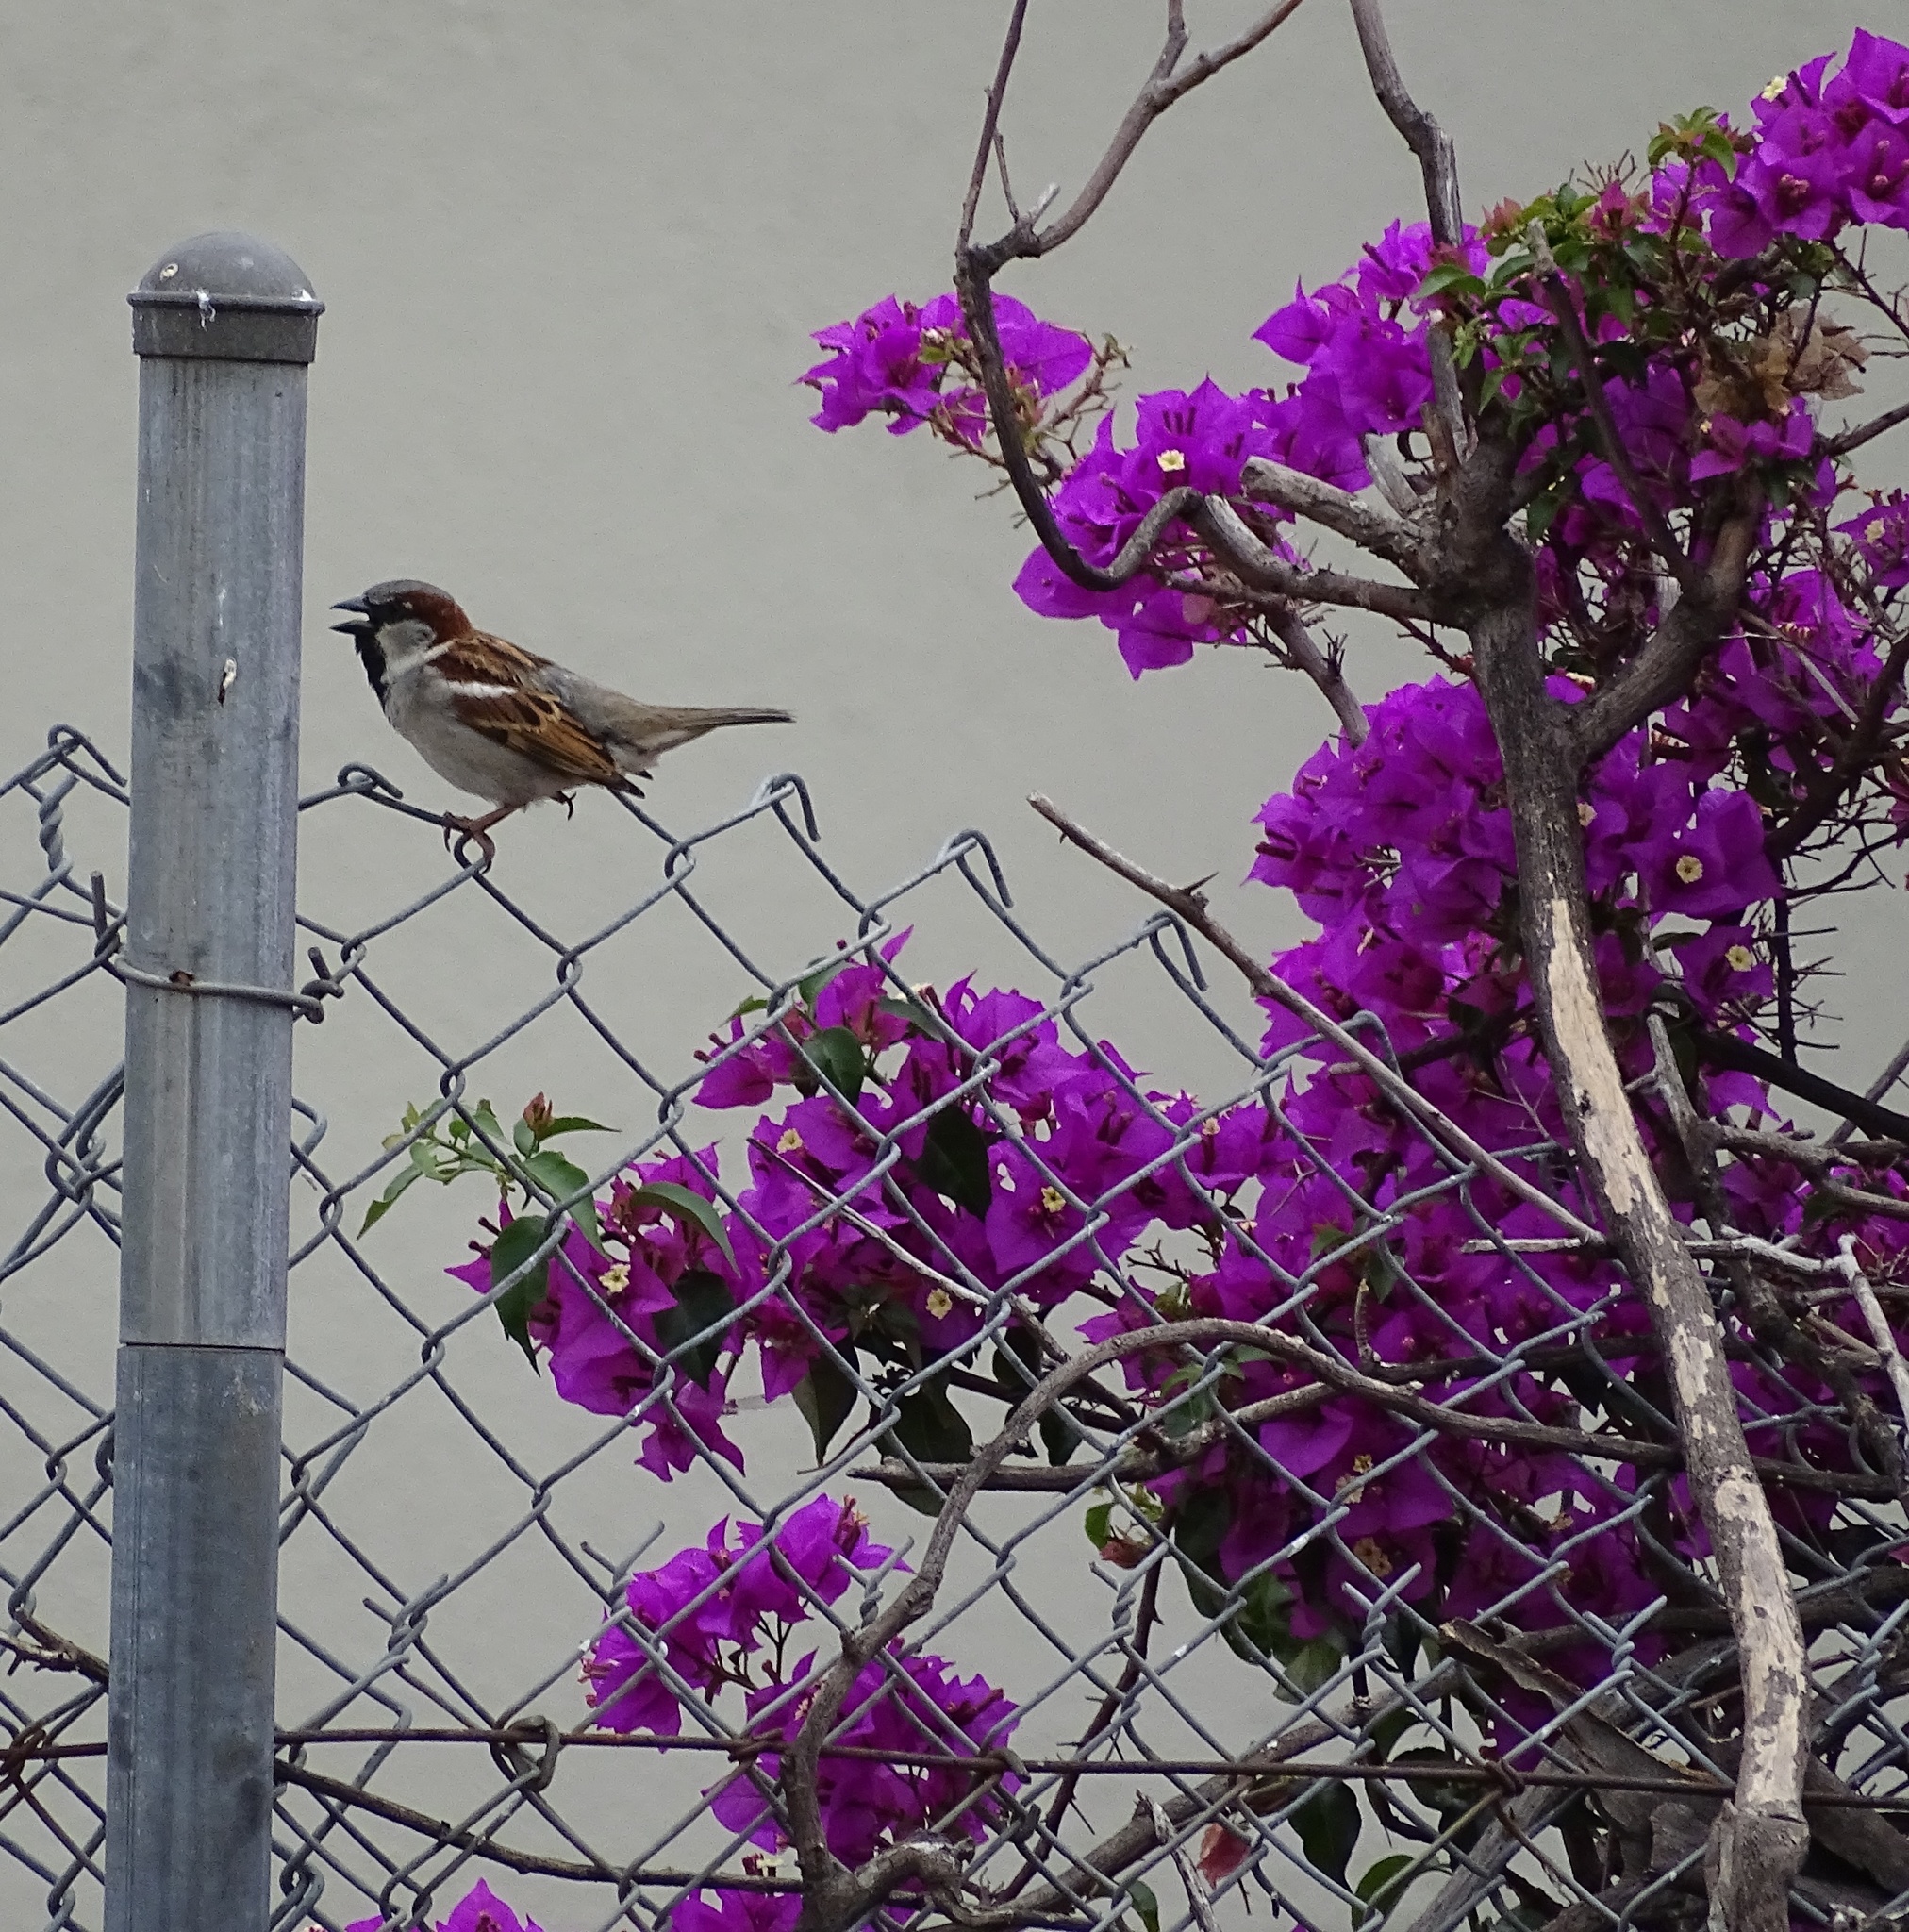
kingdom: Animalia
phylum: Chordata
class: Aves
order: Passeriformes
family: Passeridae
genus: Passer
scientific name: Passer domesticus
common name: House sparrow
